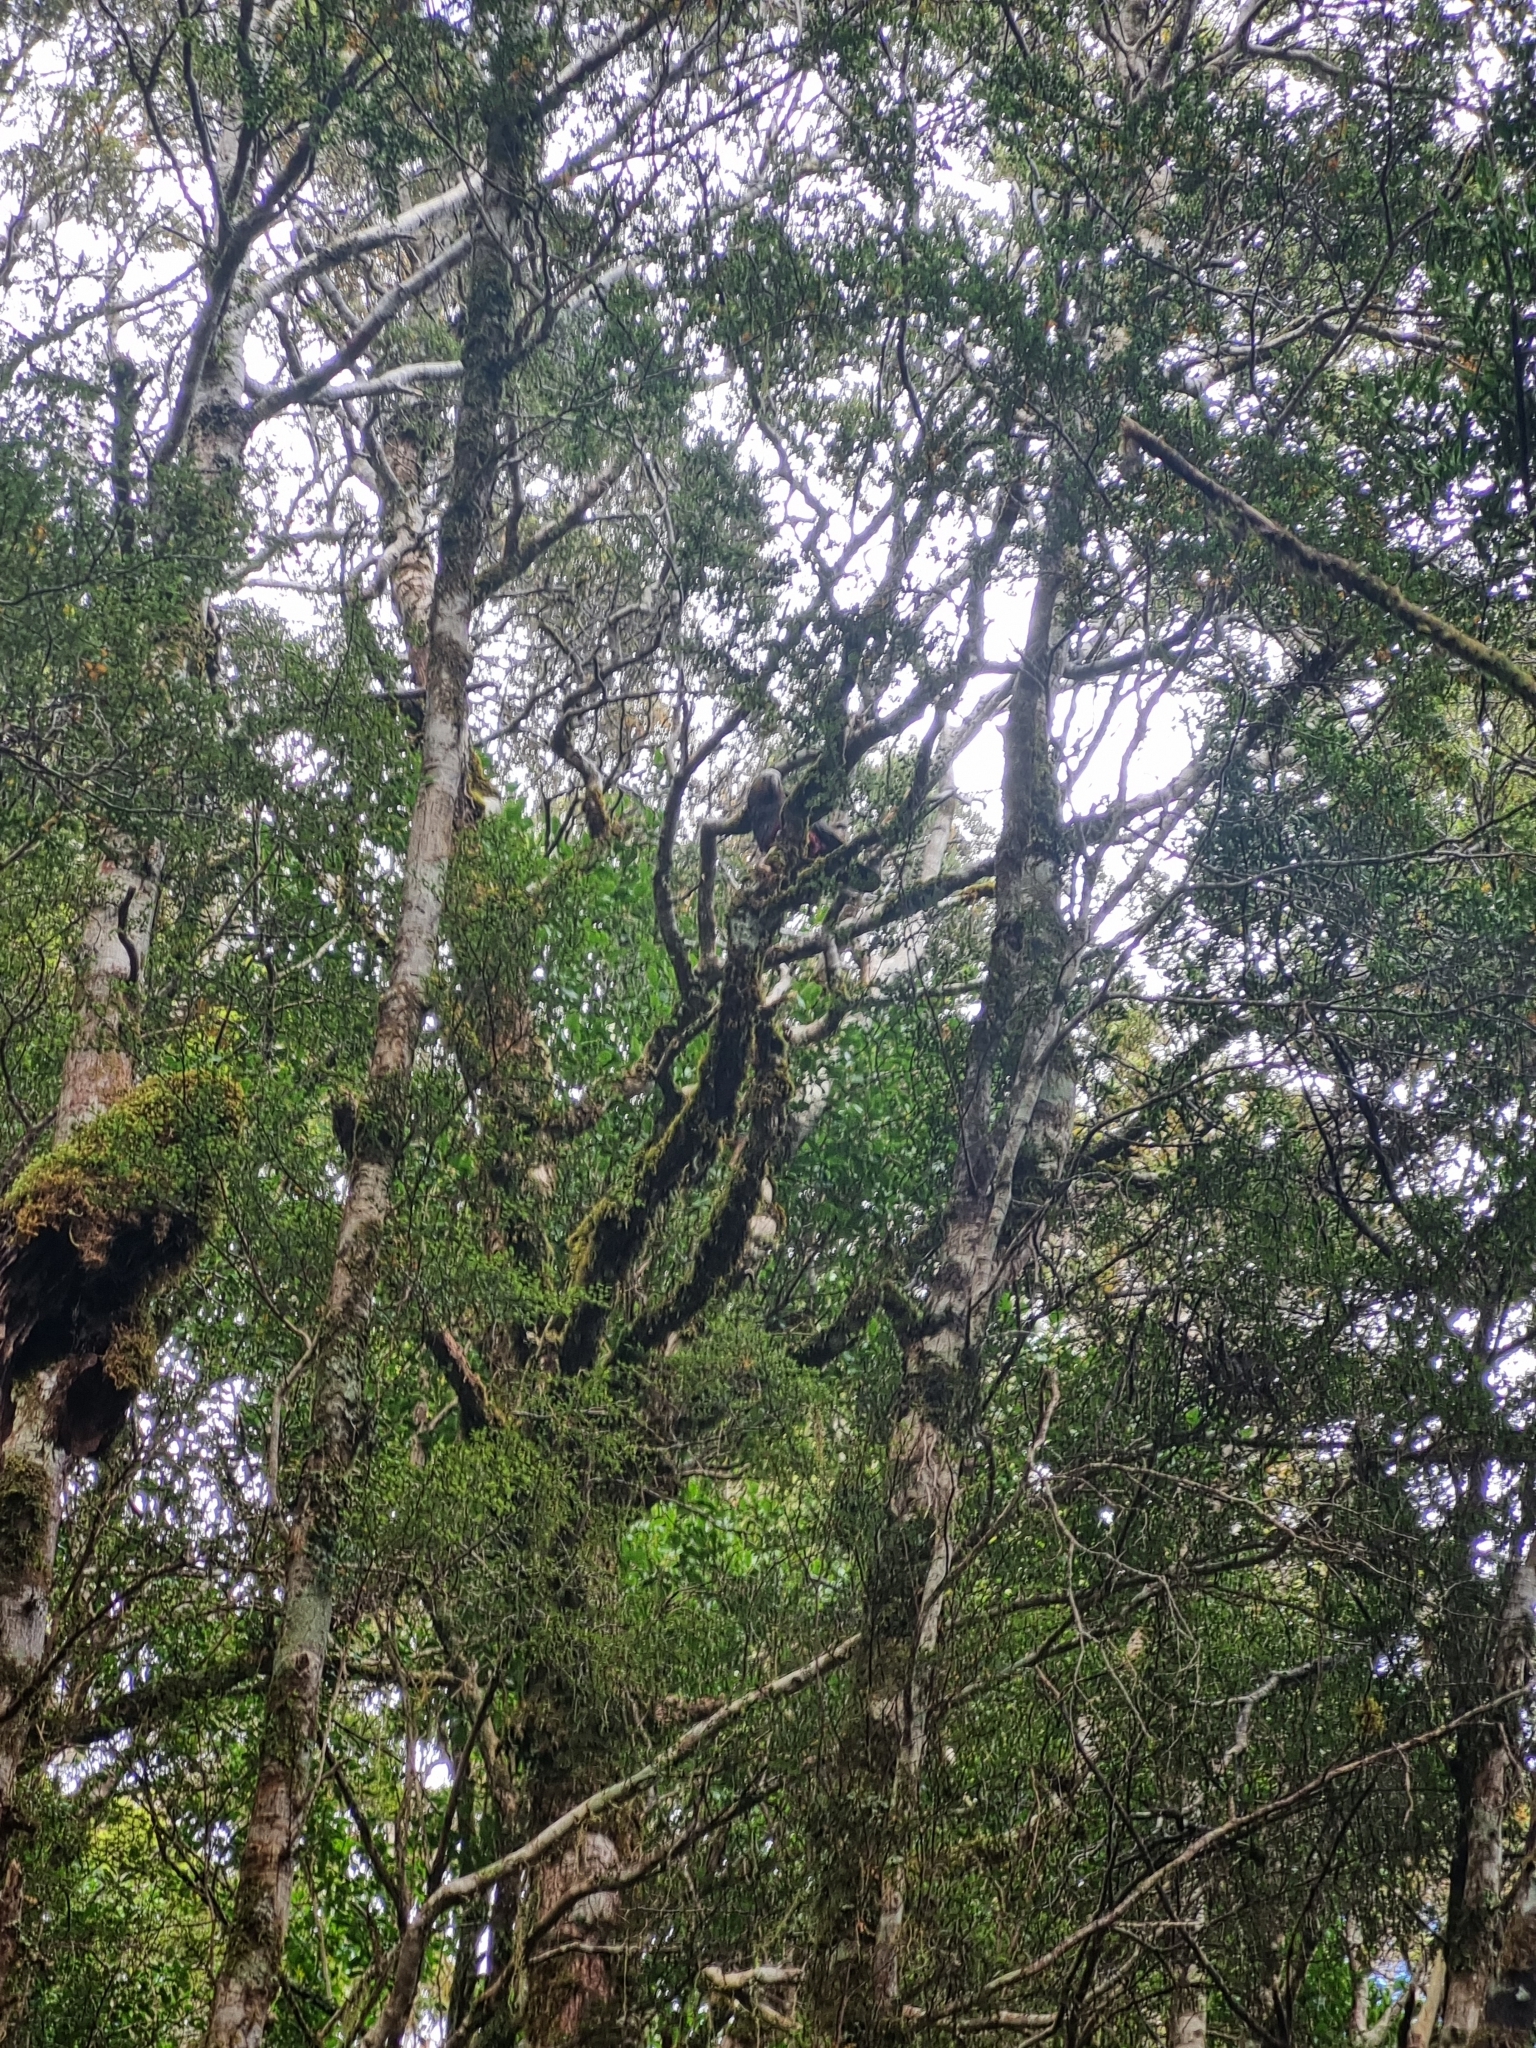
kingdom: Animalia
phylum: Chordata
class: Aves
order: Psittaciformes
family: Psittacidae
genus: Nestor
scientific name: Nestor meridionalis
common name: New zealand kaka
